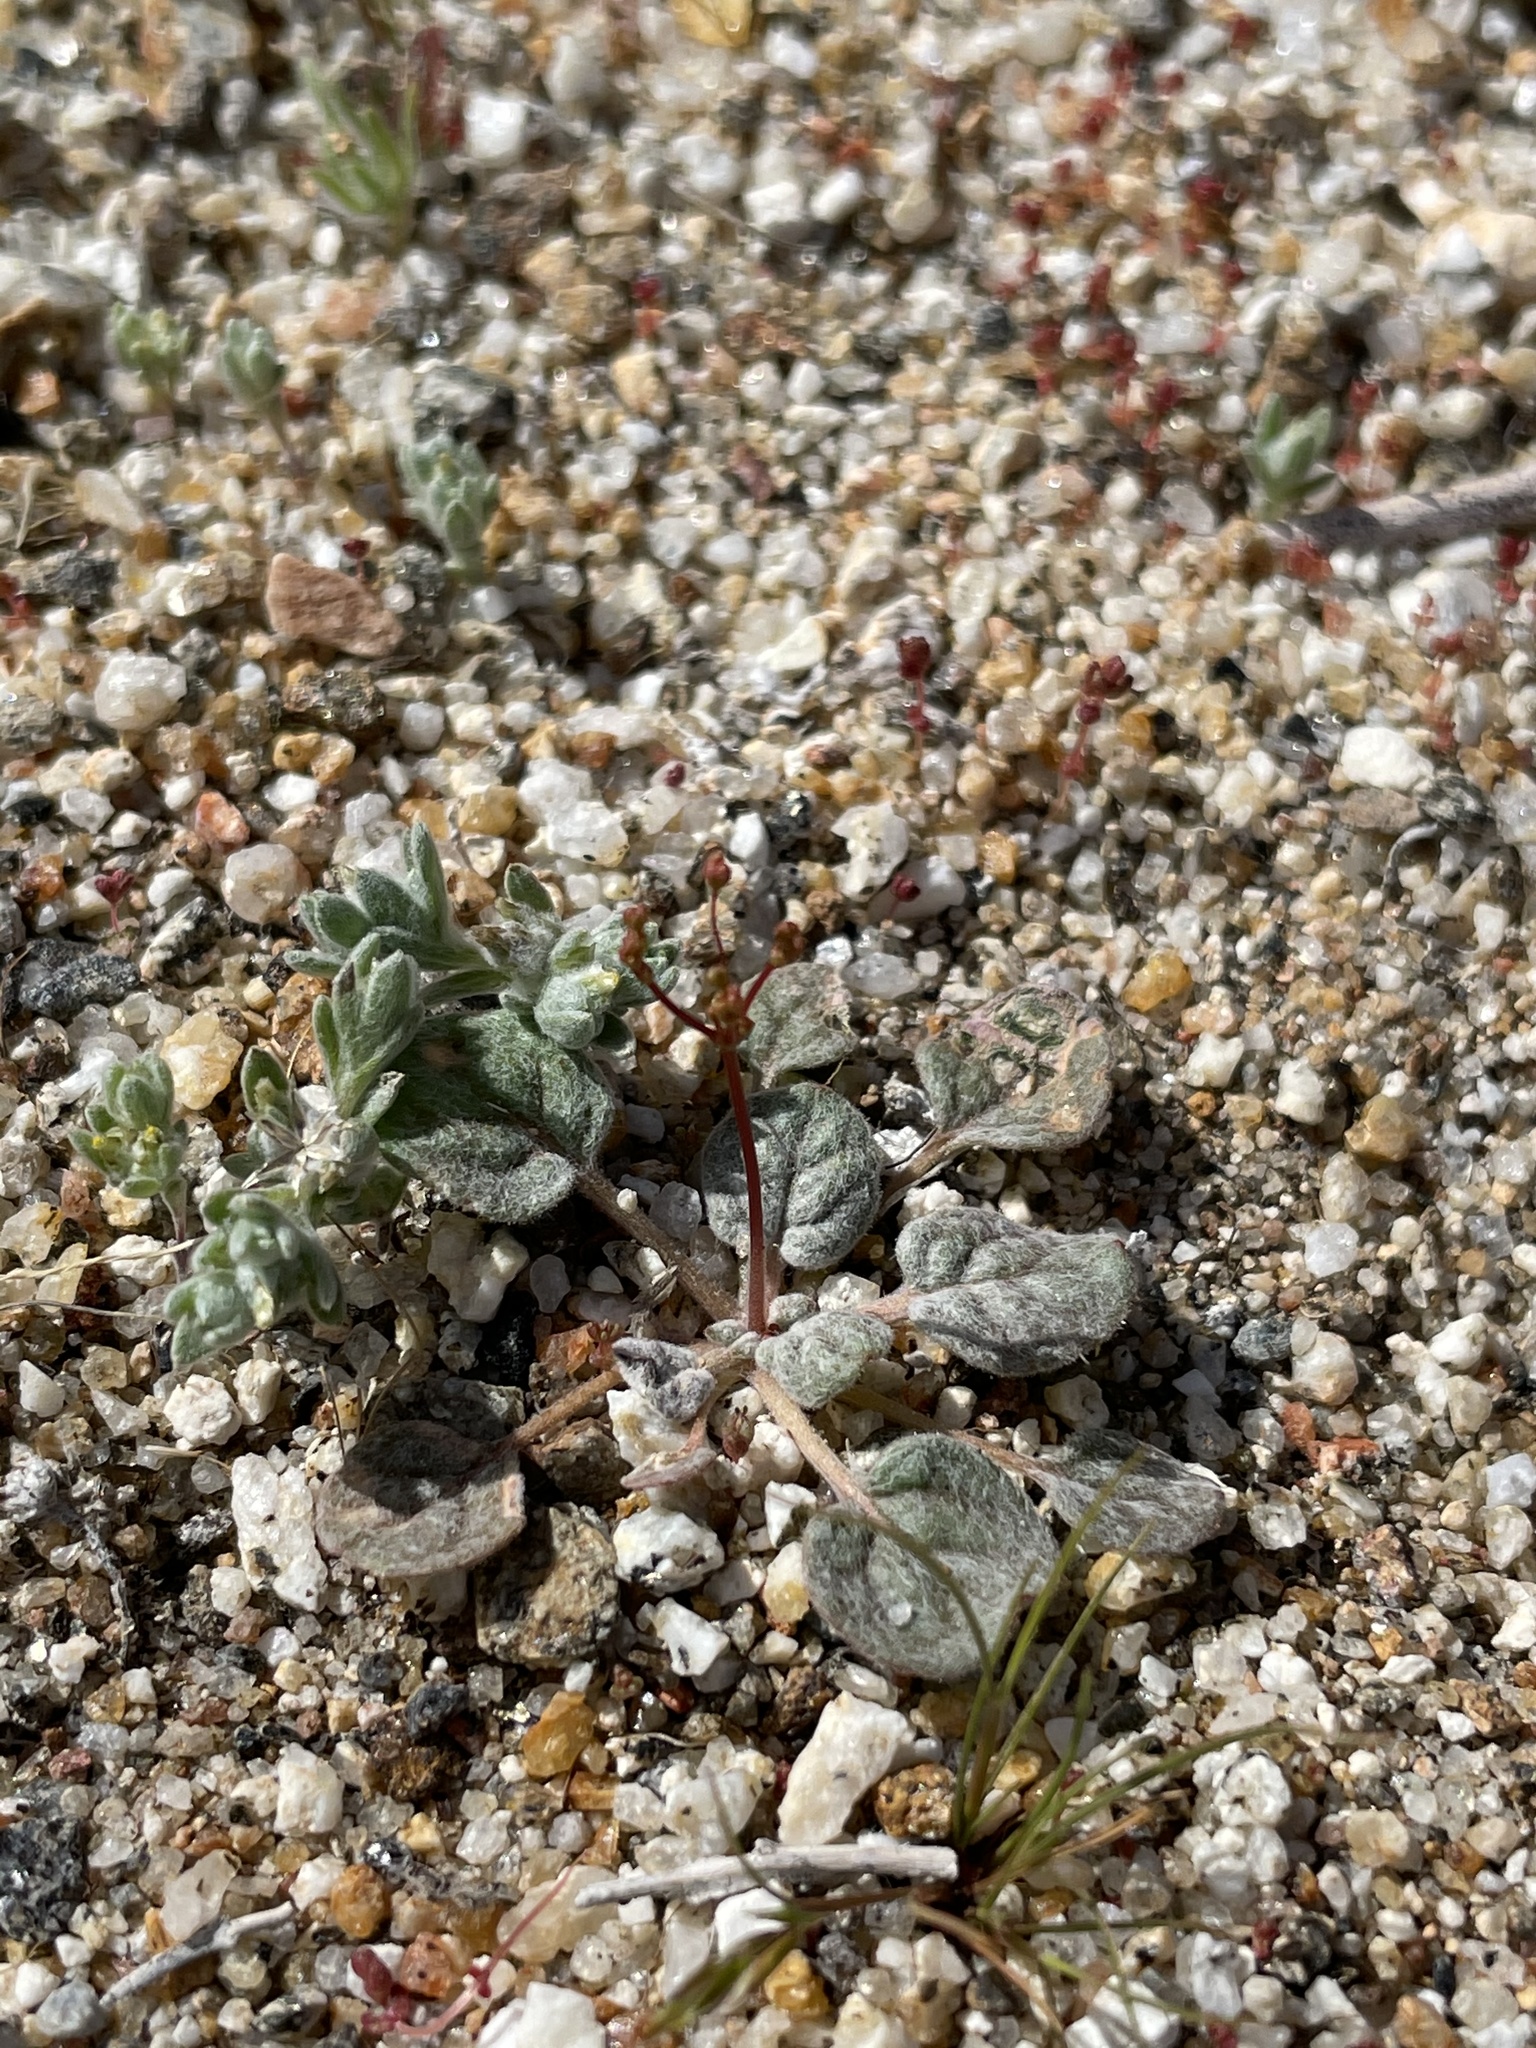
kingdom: Plantae
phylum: Tracheophyta
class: Magnoliopsida
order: Caryophyllales
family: Polygonaceae
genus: Eriogonum
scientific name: Eriogonum thomasii
